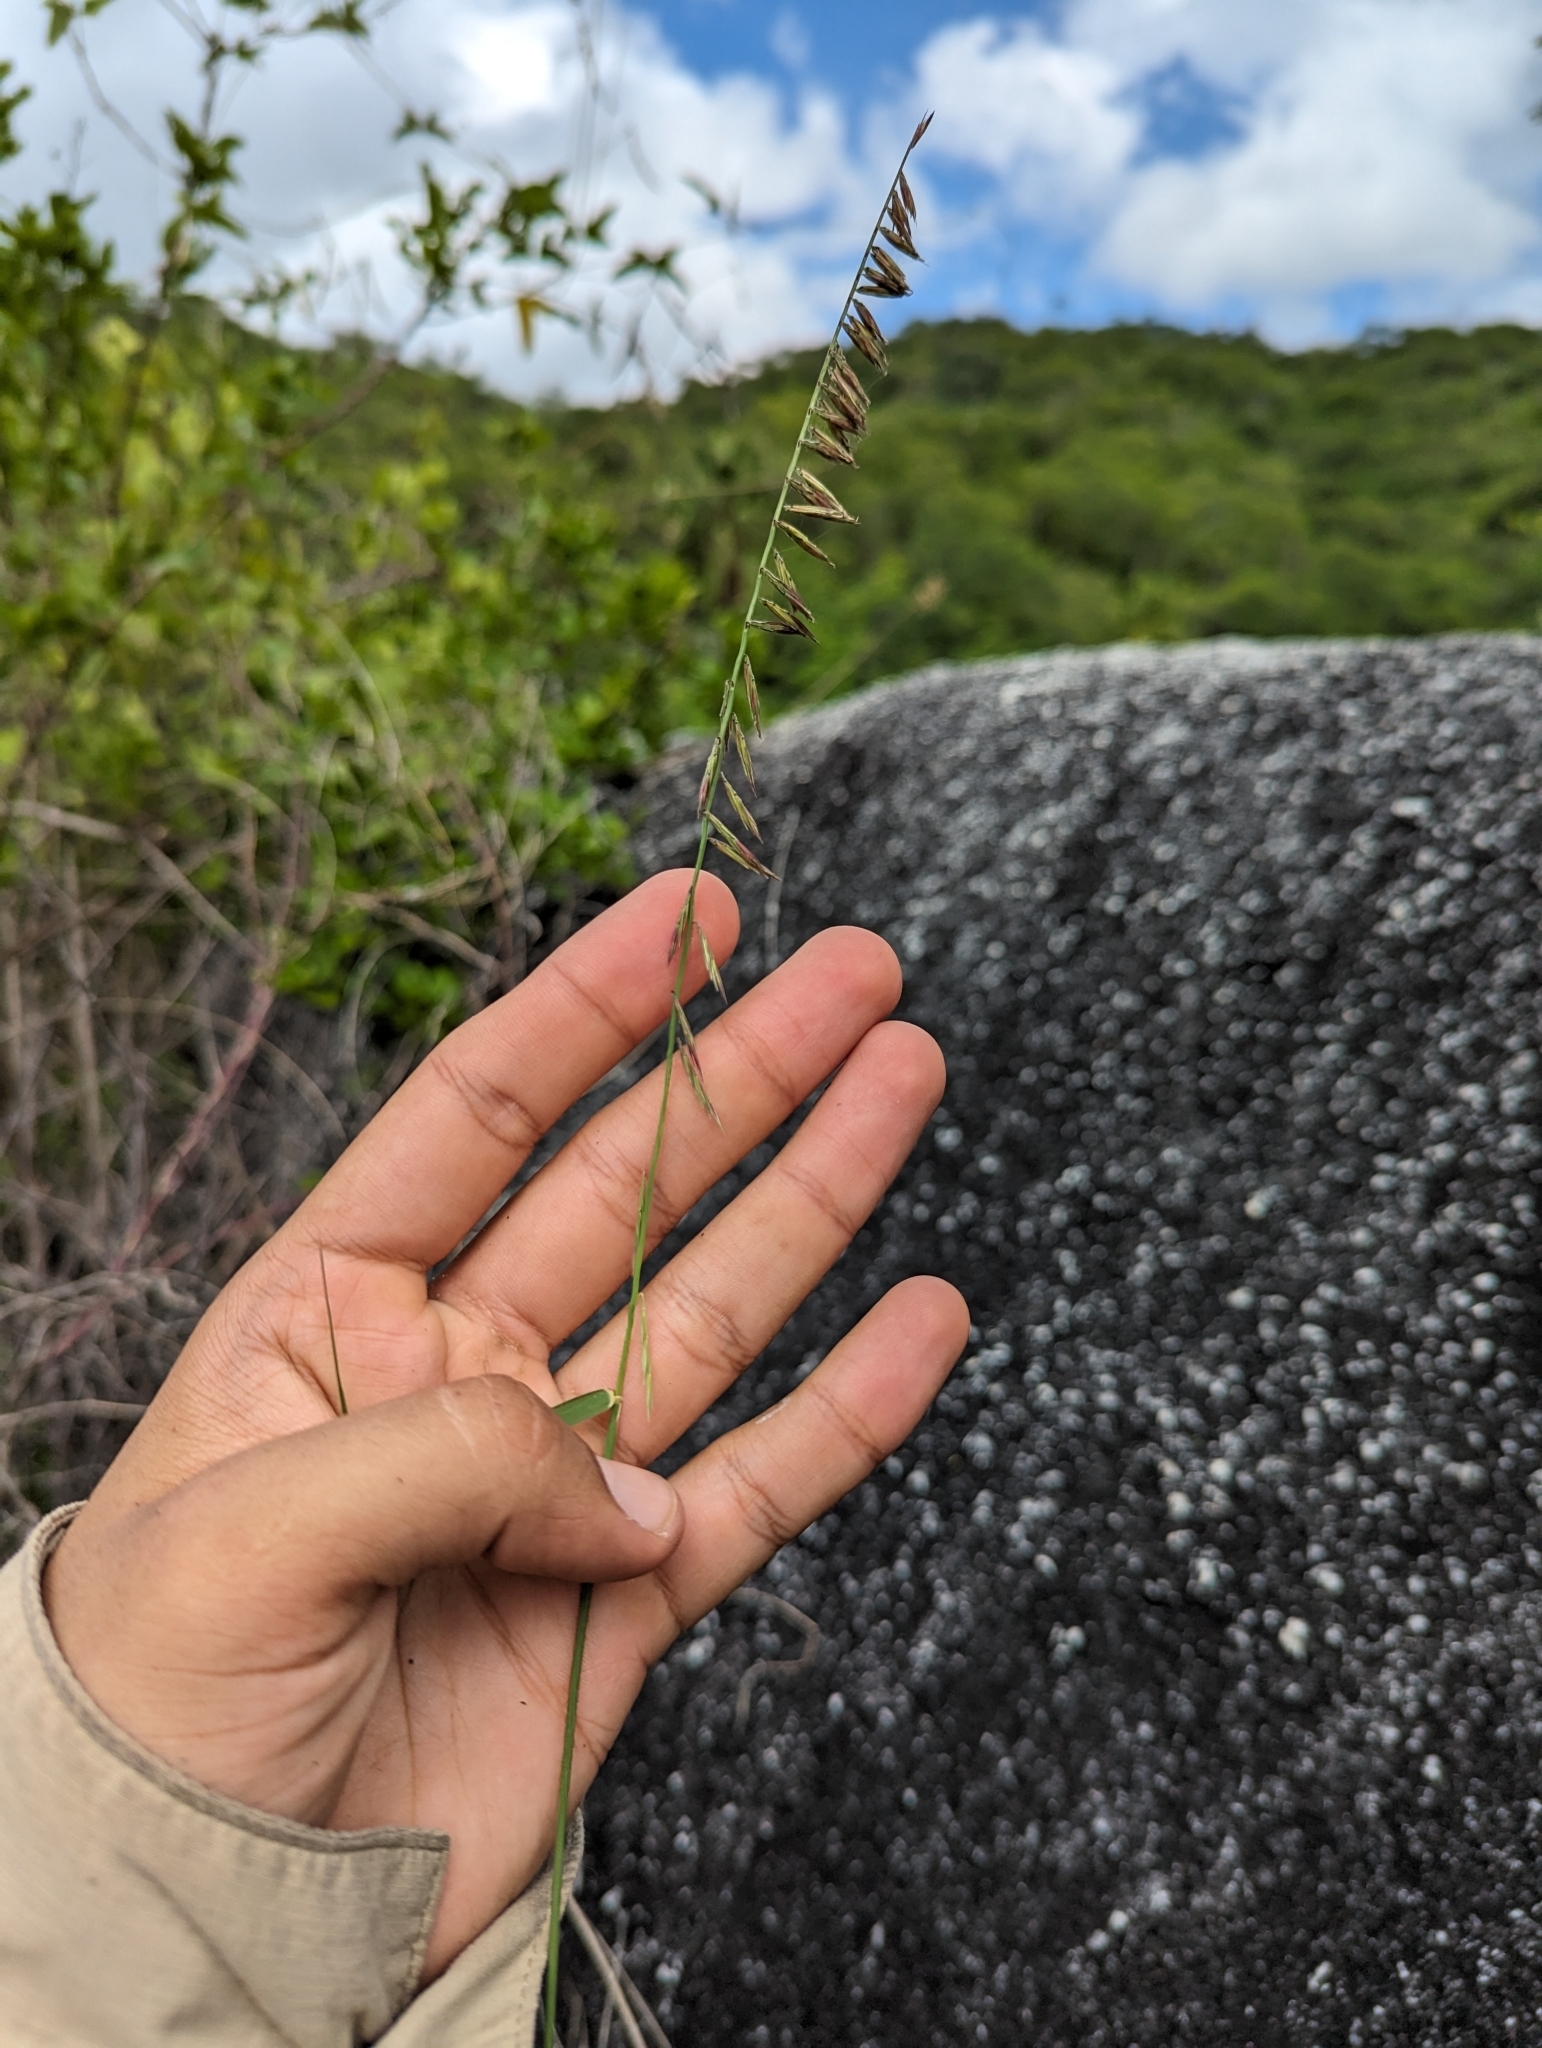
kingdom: Plantae
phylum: Tracheophyta
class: Liliopsida
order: Poales
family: Poaceae
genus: Bouteloua
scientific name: Bouteloua reflexa
